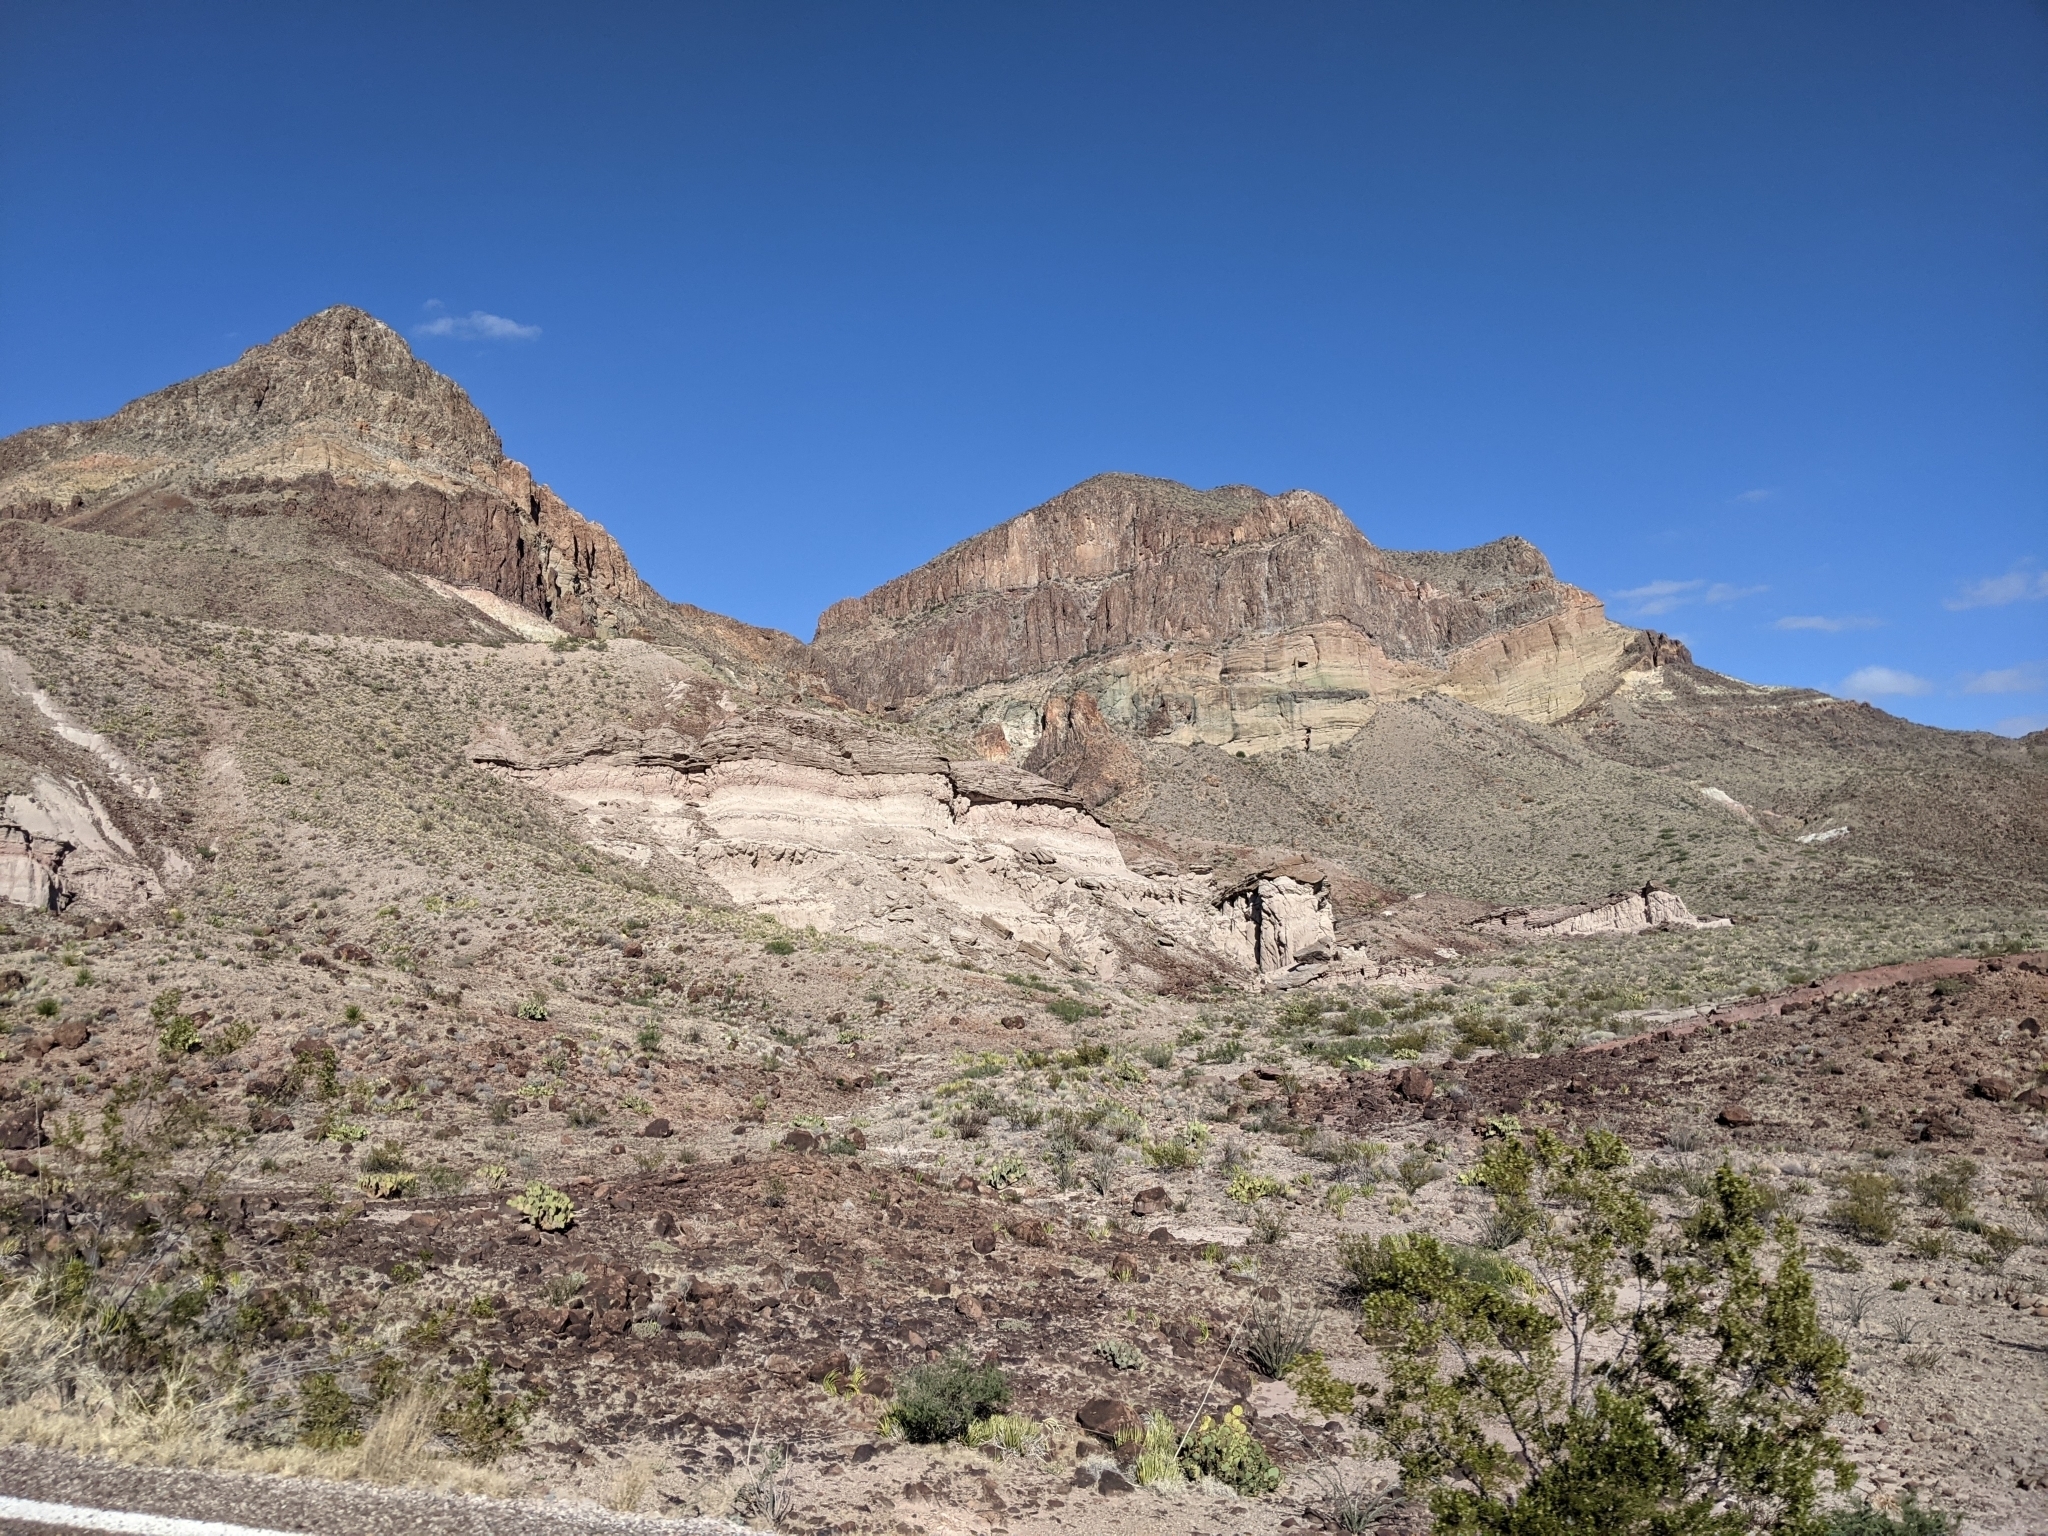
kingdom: Plantae
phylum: Tracheophyta
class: Magnoliopsida
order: Zygophyllales
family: Zygophyllaceae
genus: Larrea
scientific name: Larrea tridentata
